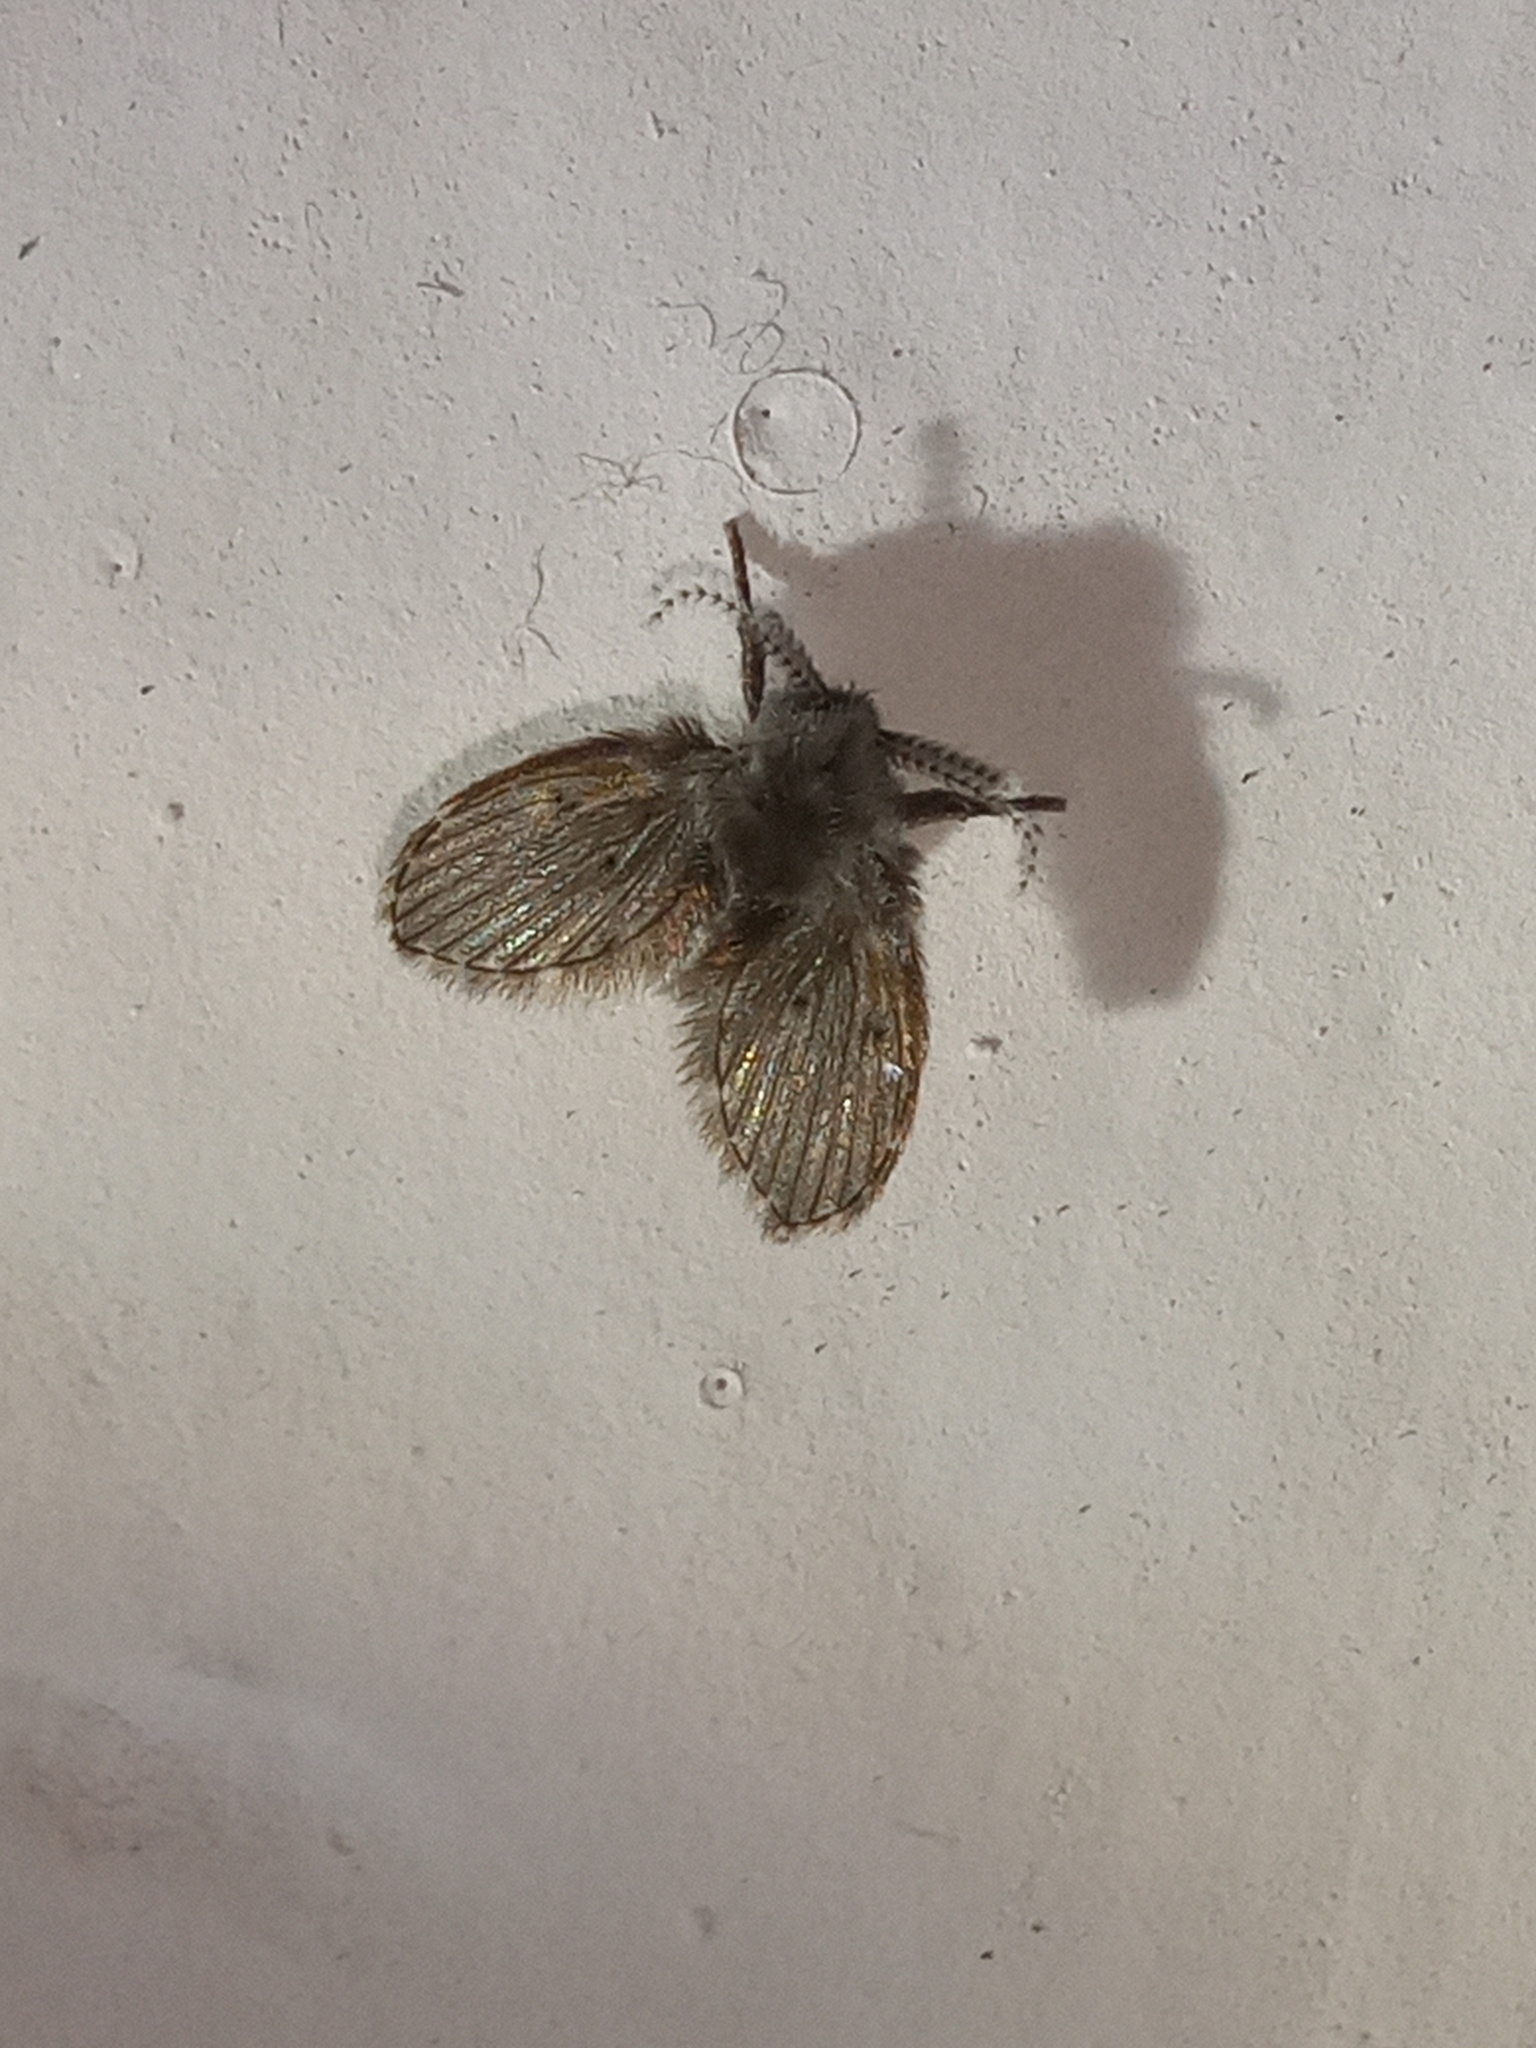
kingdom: Animalia
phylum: Arthropoda
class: Insecta
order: Diptera
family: Psychodidae
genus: Clogmia
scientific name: Clogmia albipunctatus
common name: White-spotted moth fly
